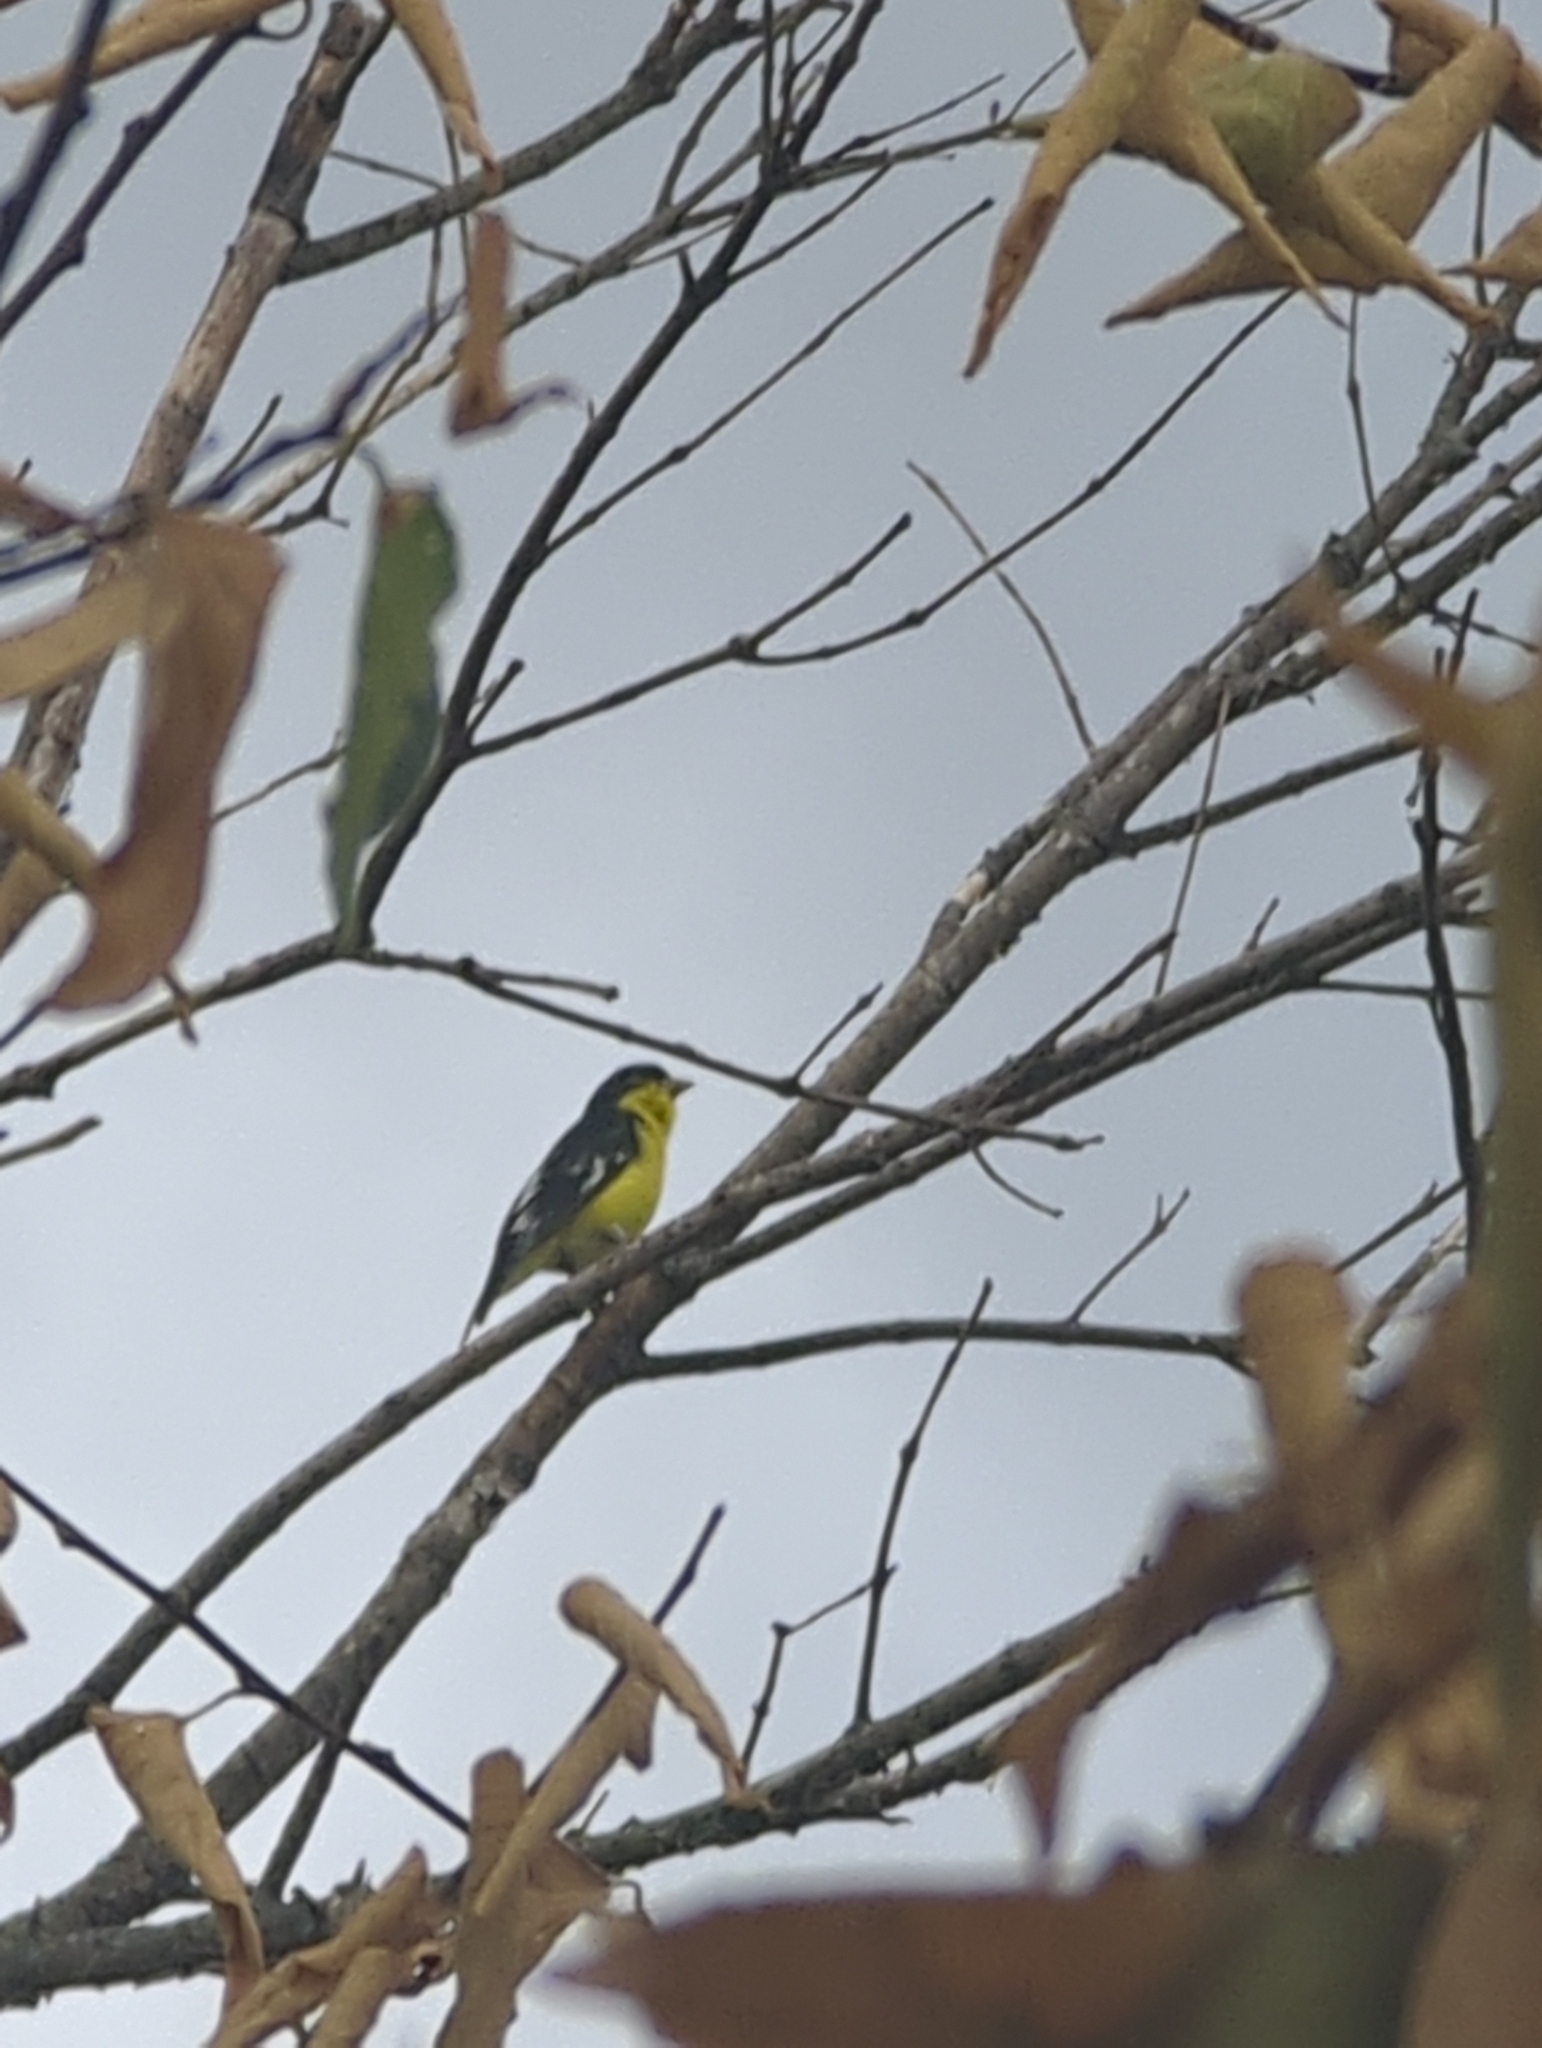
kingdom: Animalia
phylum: Chordata
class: Aves
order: Passeriformes
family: Fringillidae
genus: Spinus
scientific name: Spinus psaltria
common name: Lesser goldfinch
